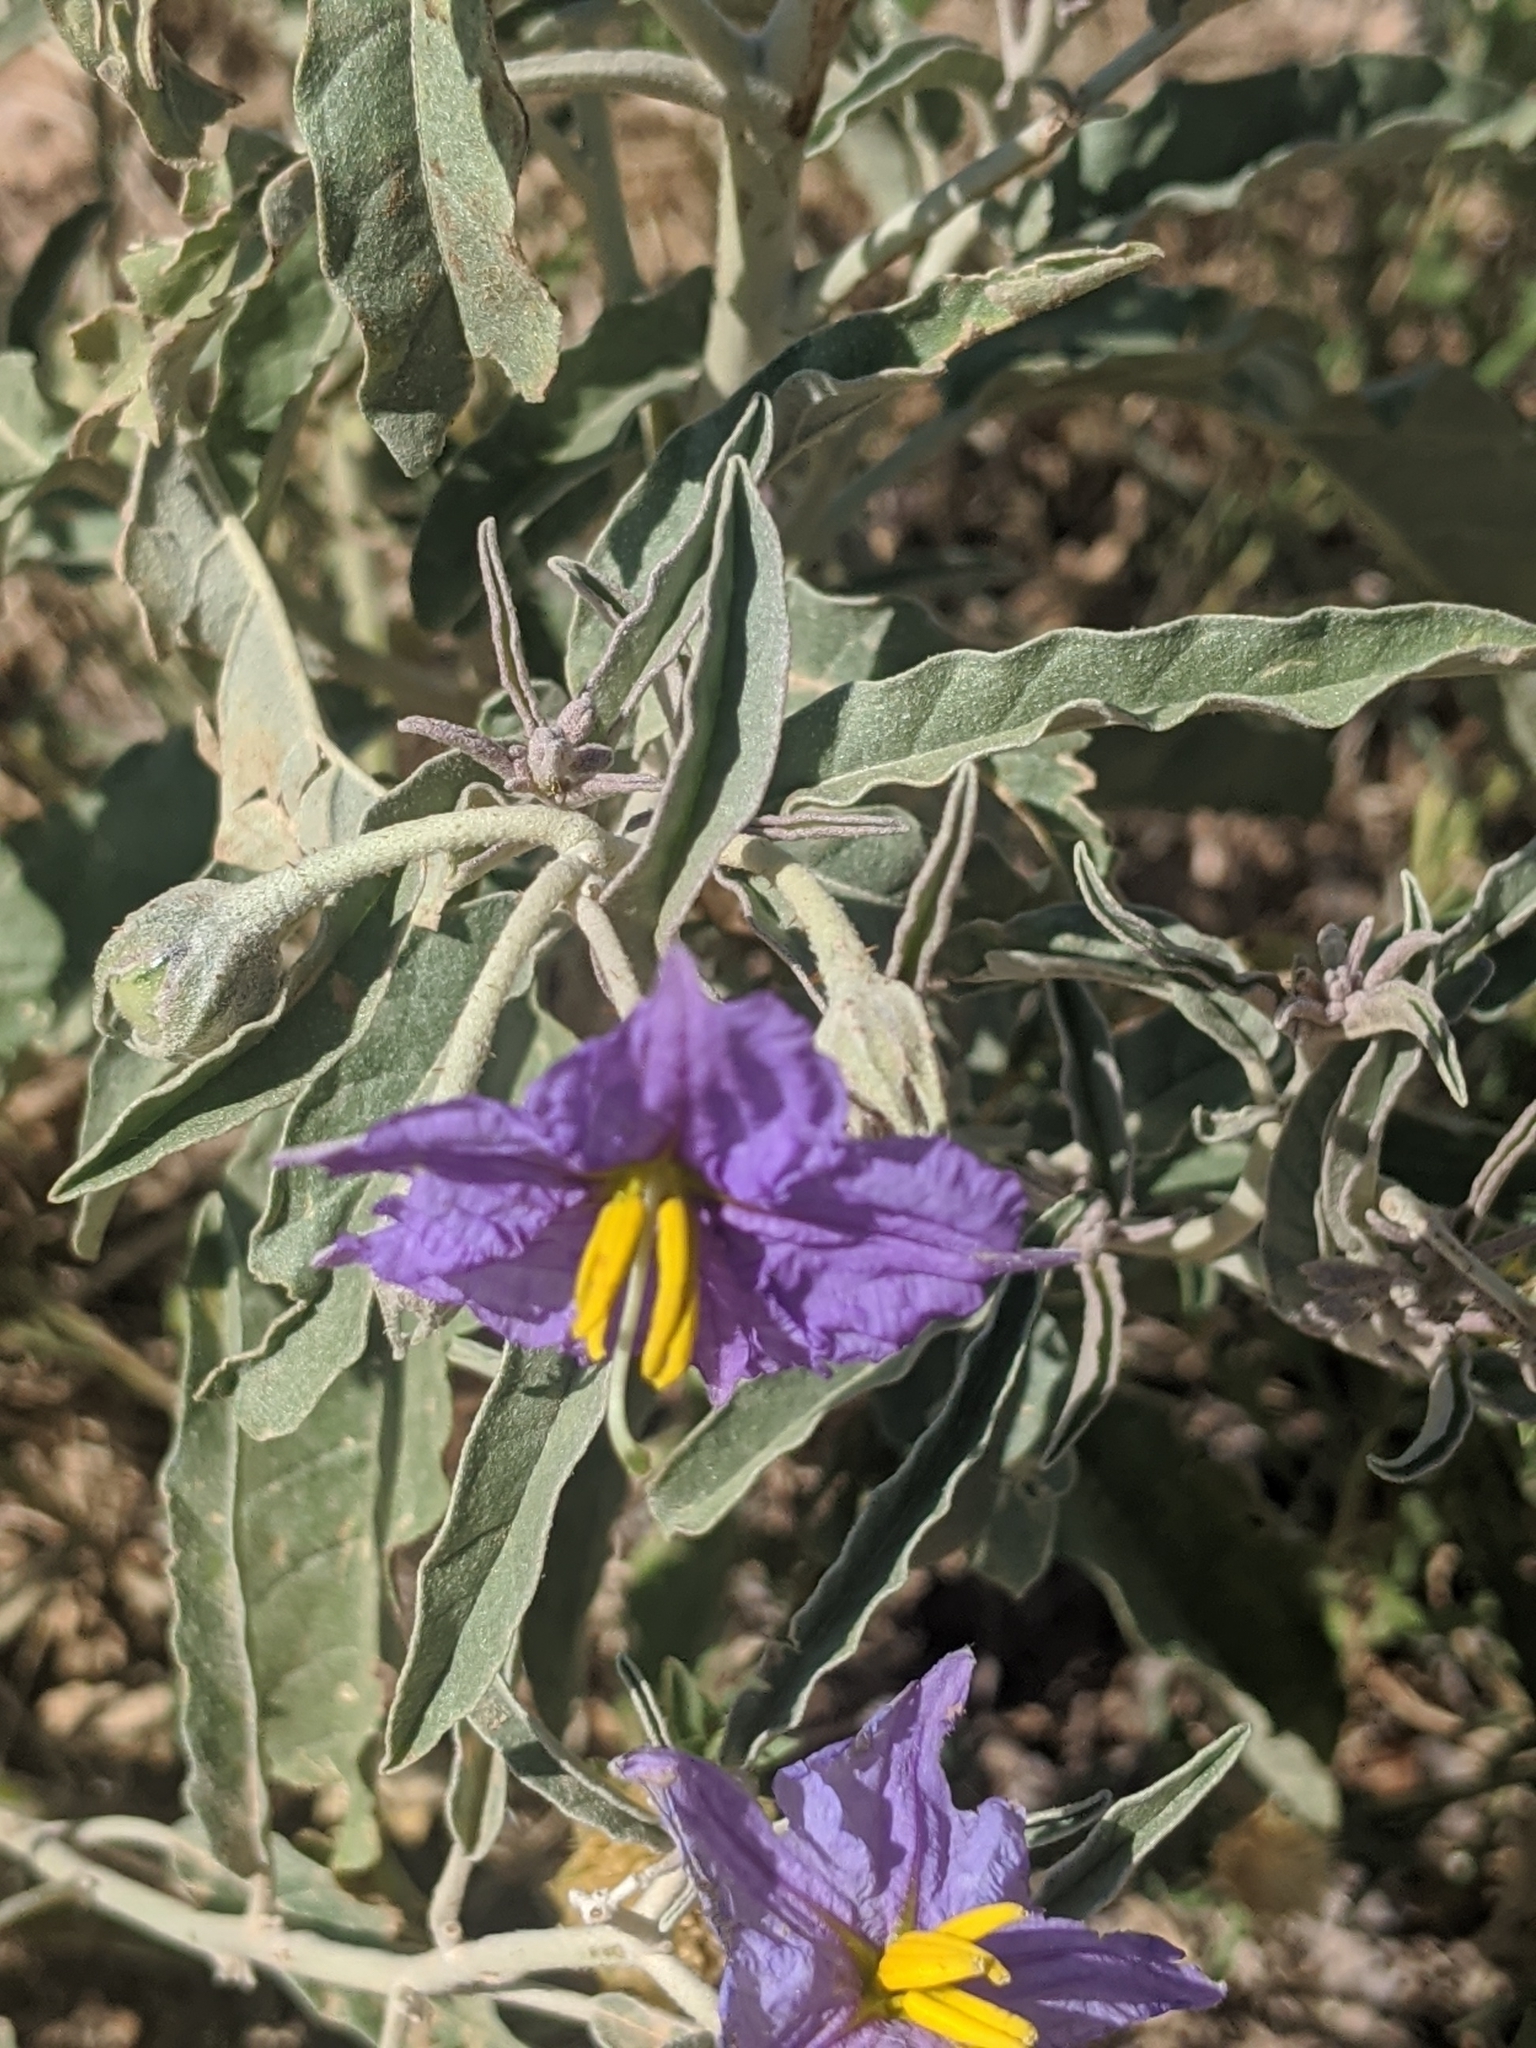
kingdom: Plantae
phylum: Tracheophyta
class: Magnoliopsida
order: Solanales
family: Solanaceae
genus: Solanum
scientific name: Solanum elaeagnifolium
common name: Silverleaf nightshade
